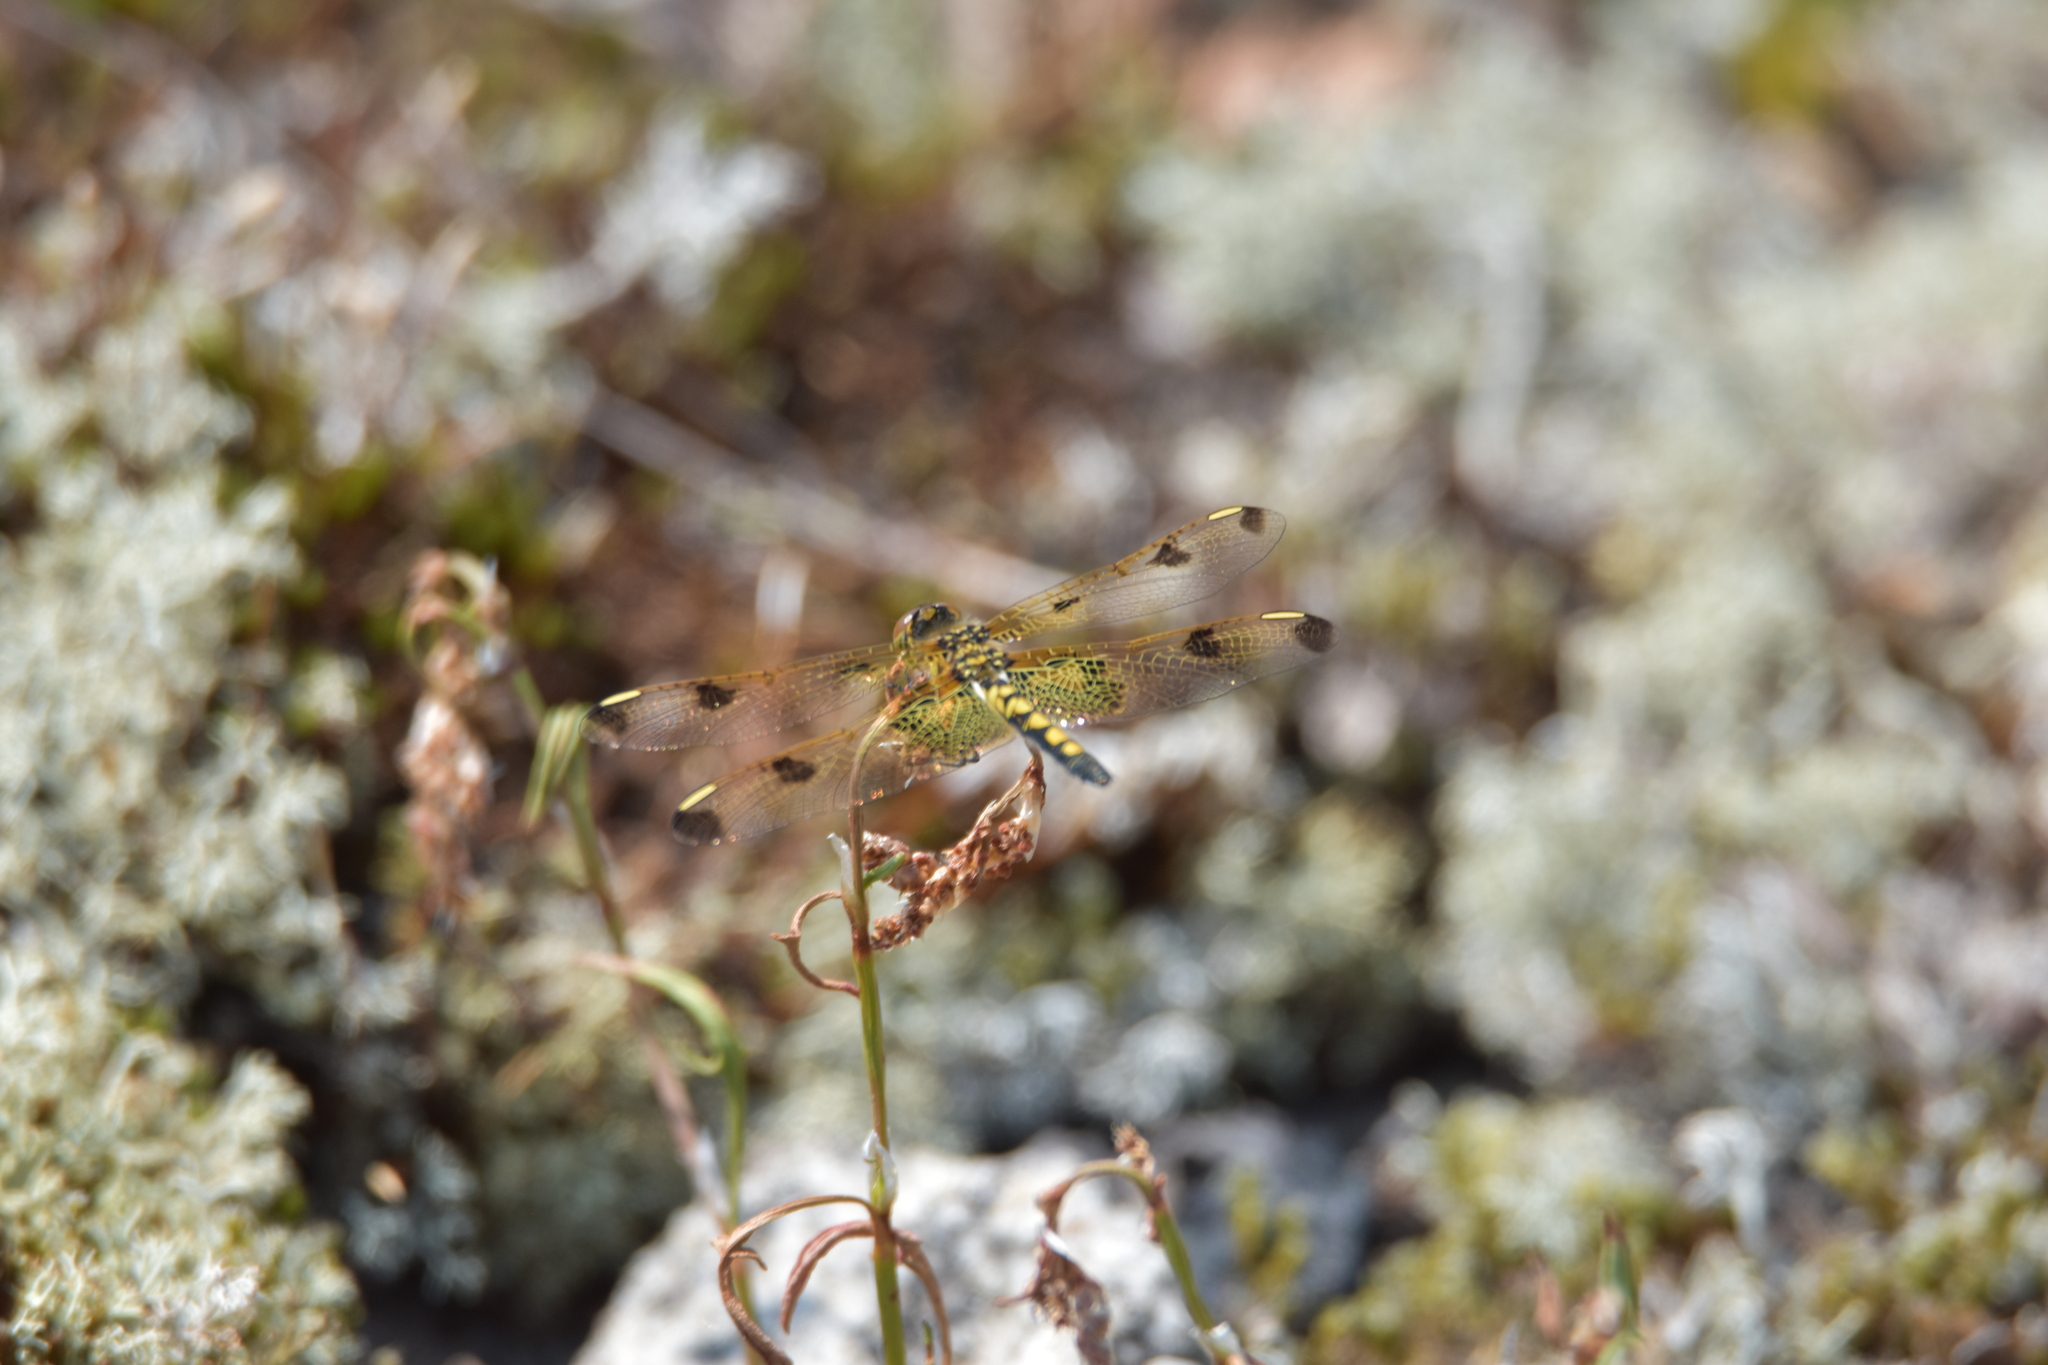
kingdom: Animalia
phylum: Arthropoda
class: Insecta
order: Odonata
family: Libellulidae
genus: Celithemis
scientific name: Celithemis elisa
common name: Calico pennant
